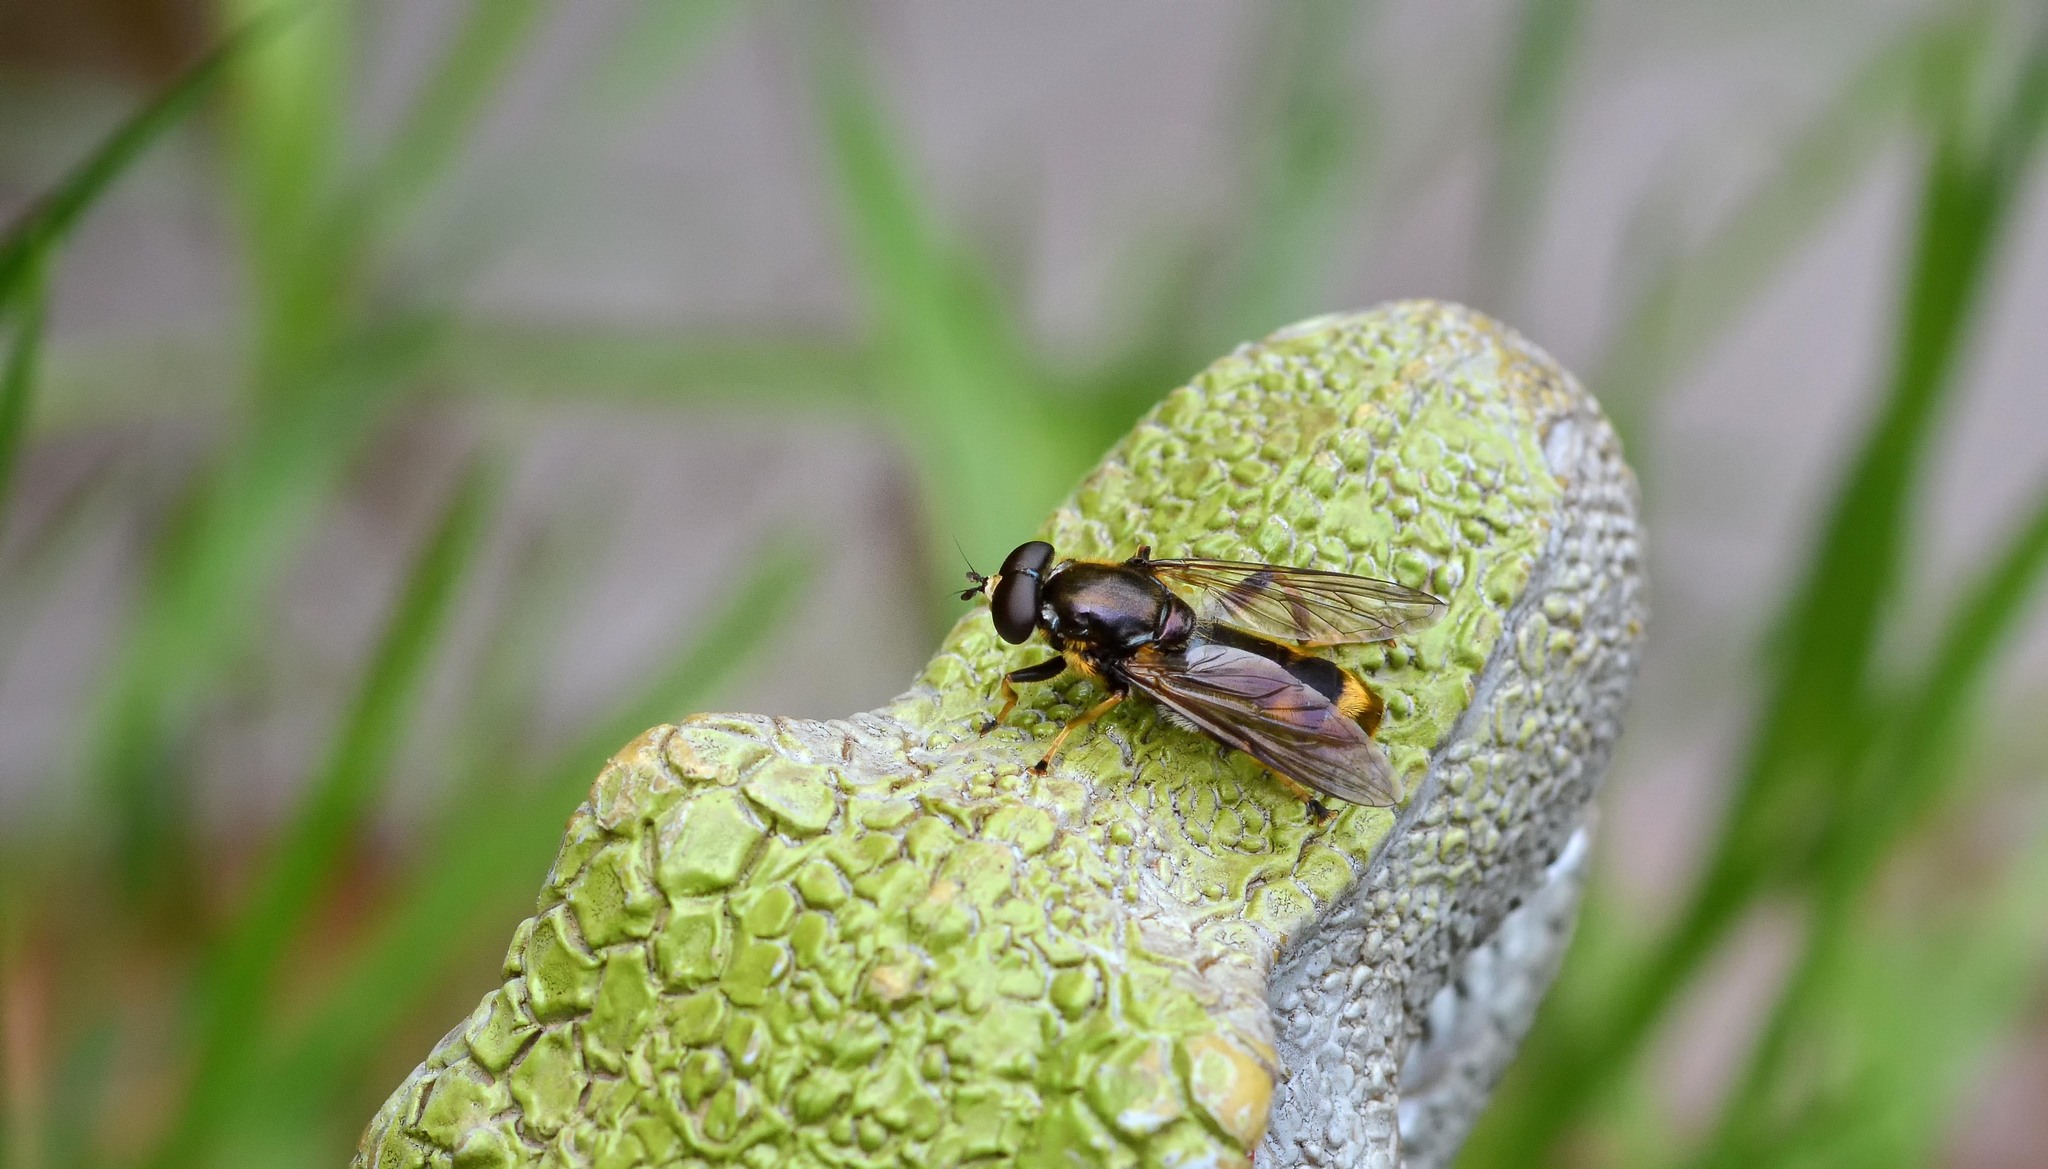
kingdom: Animalia
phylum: Arthropoda
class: Insecta
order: Diptera
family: Syrphidae
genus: Xylota
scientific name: Xylota sylvarum
